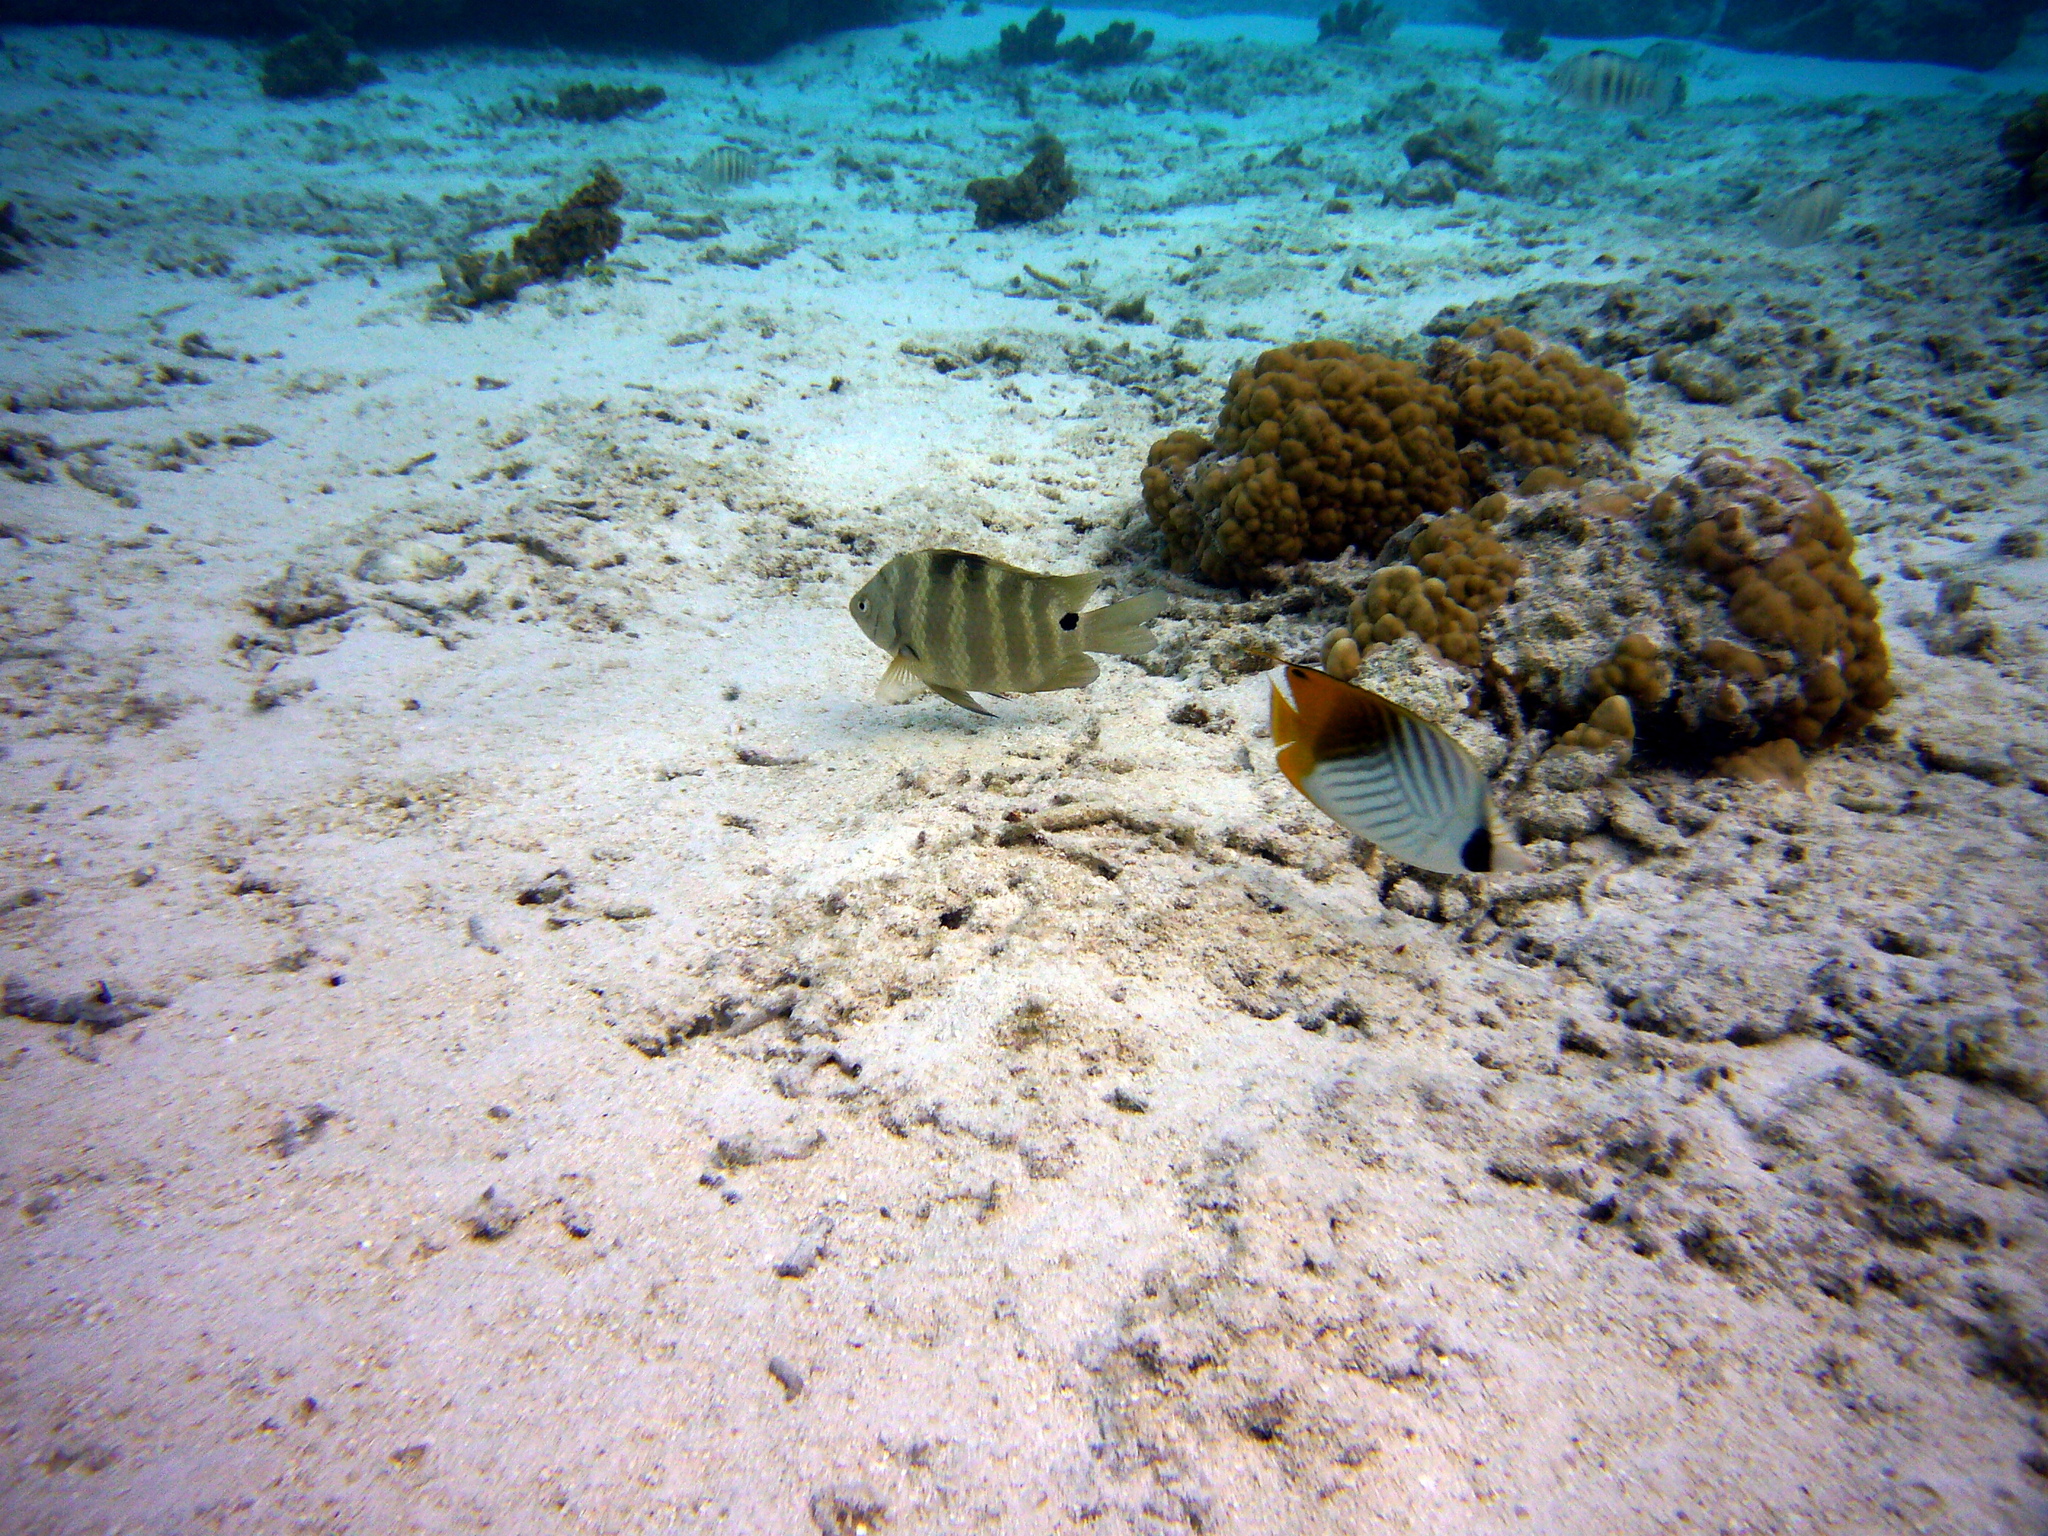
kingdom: Animalia
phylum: Chordata
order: Perciformes
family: Chaetodontidae
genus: Chaetodon
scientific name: Chaetodon auriga
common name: Threadfin butterflyfish
